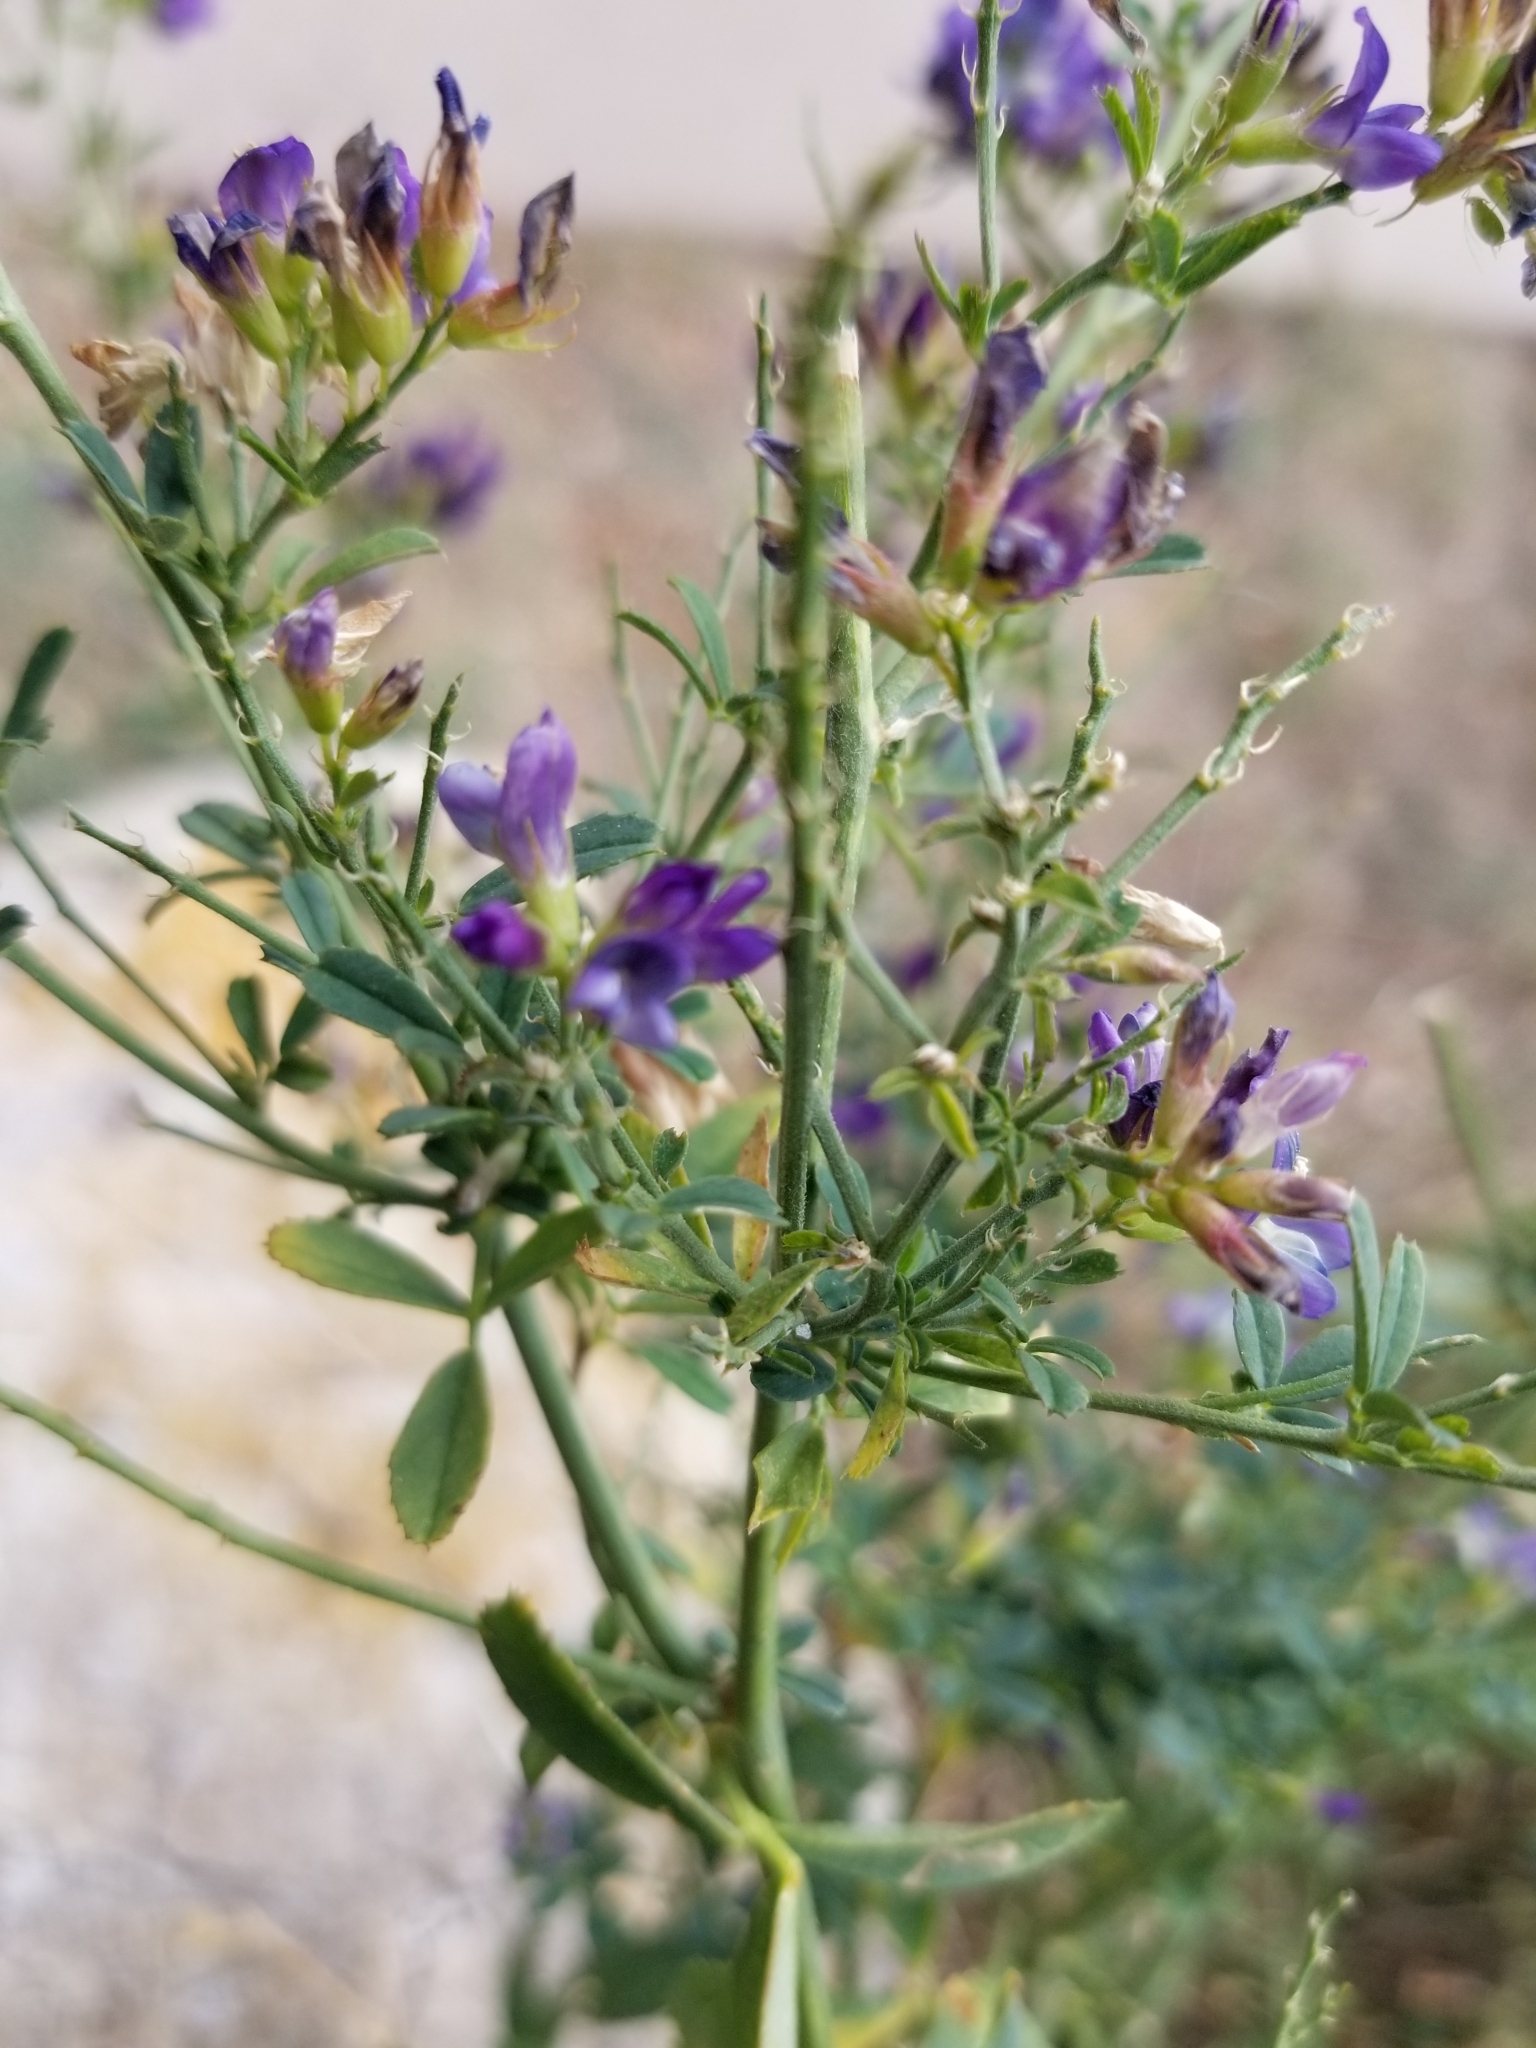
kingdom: Plantae
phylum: Tracheophyta
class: Magnoliopsida
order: Fabales
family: Fabaceae
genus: Medicago
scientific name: Medicago sativa
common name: Alfalfa
